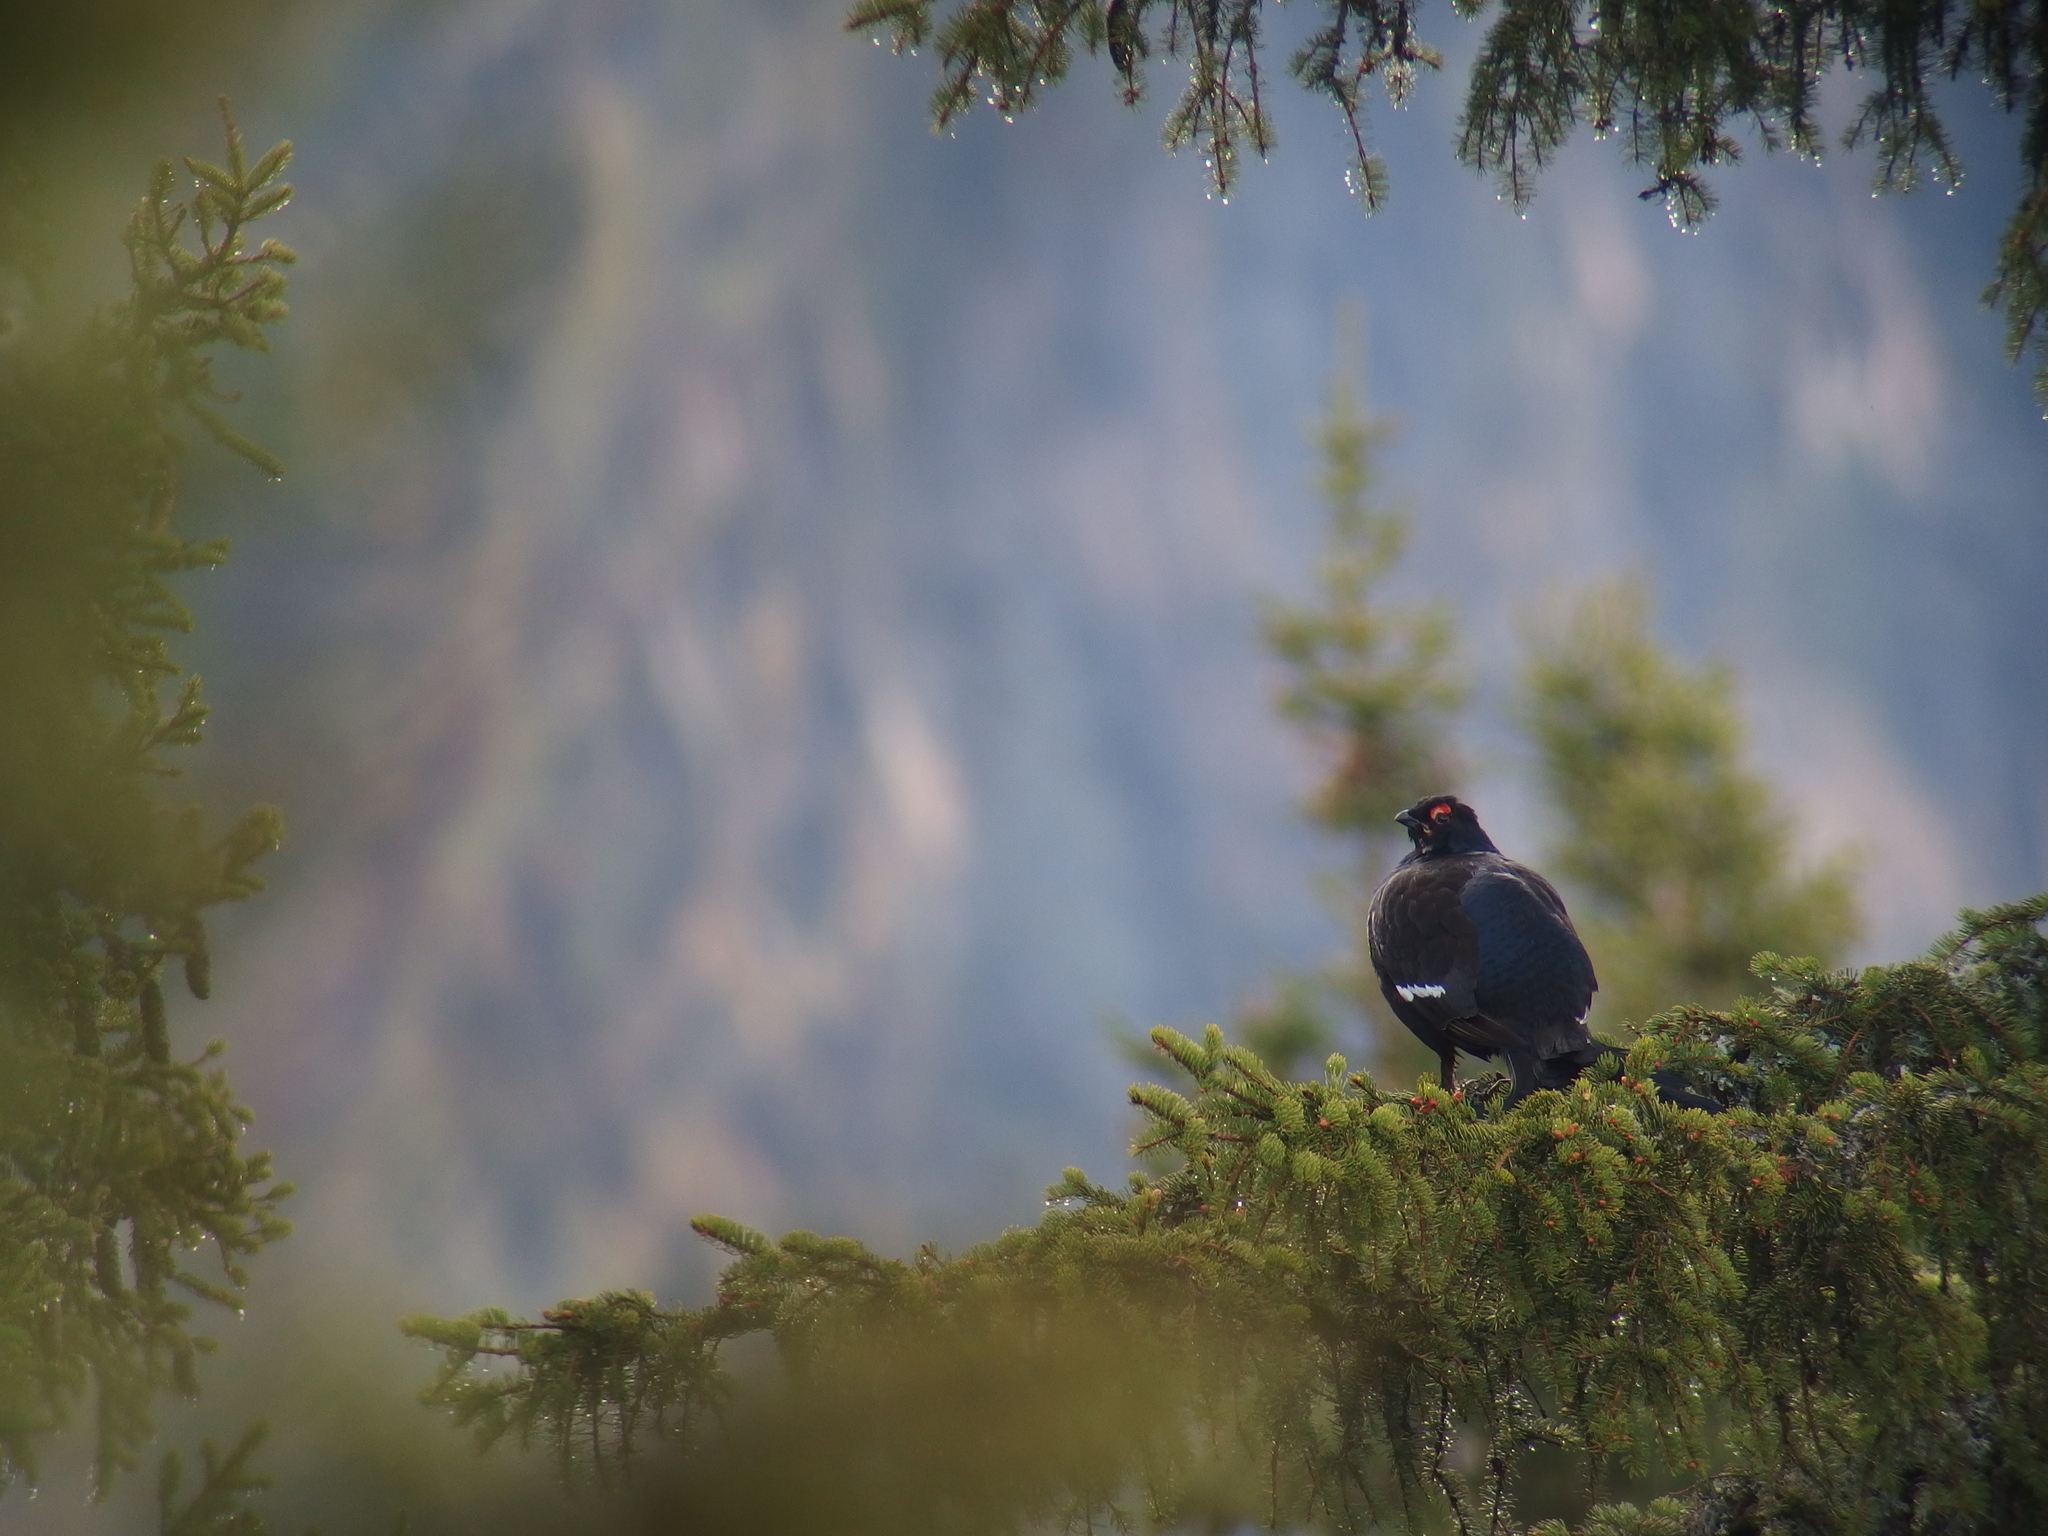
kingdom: Animalia
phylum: Chordata
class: Aves
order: Galliformes
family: Phasianidae
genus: Lyrurus
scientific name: Lyrurus tetrix
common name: Black grouse
